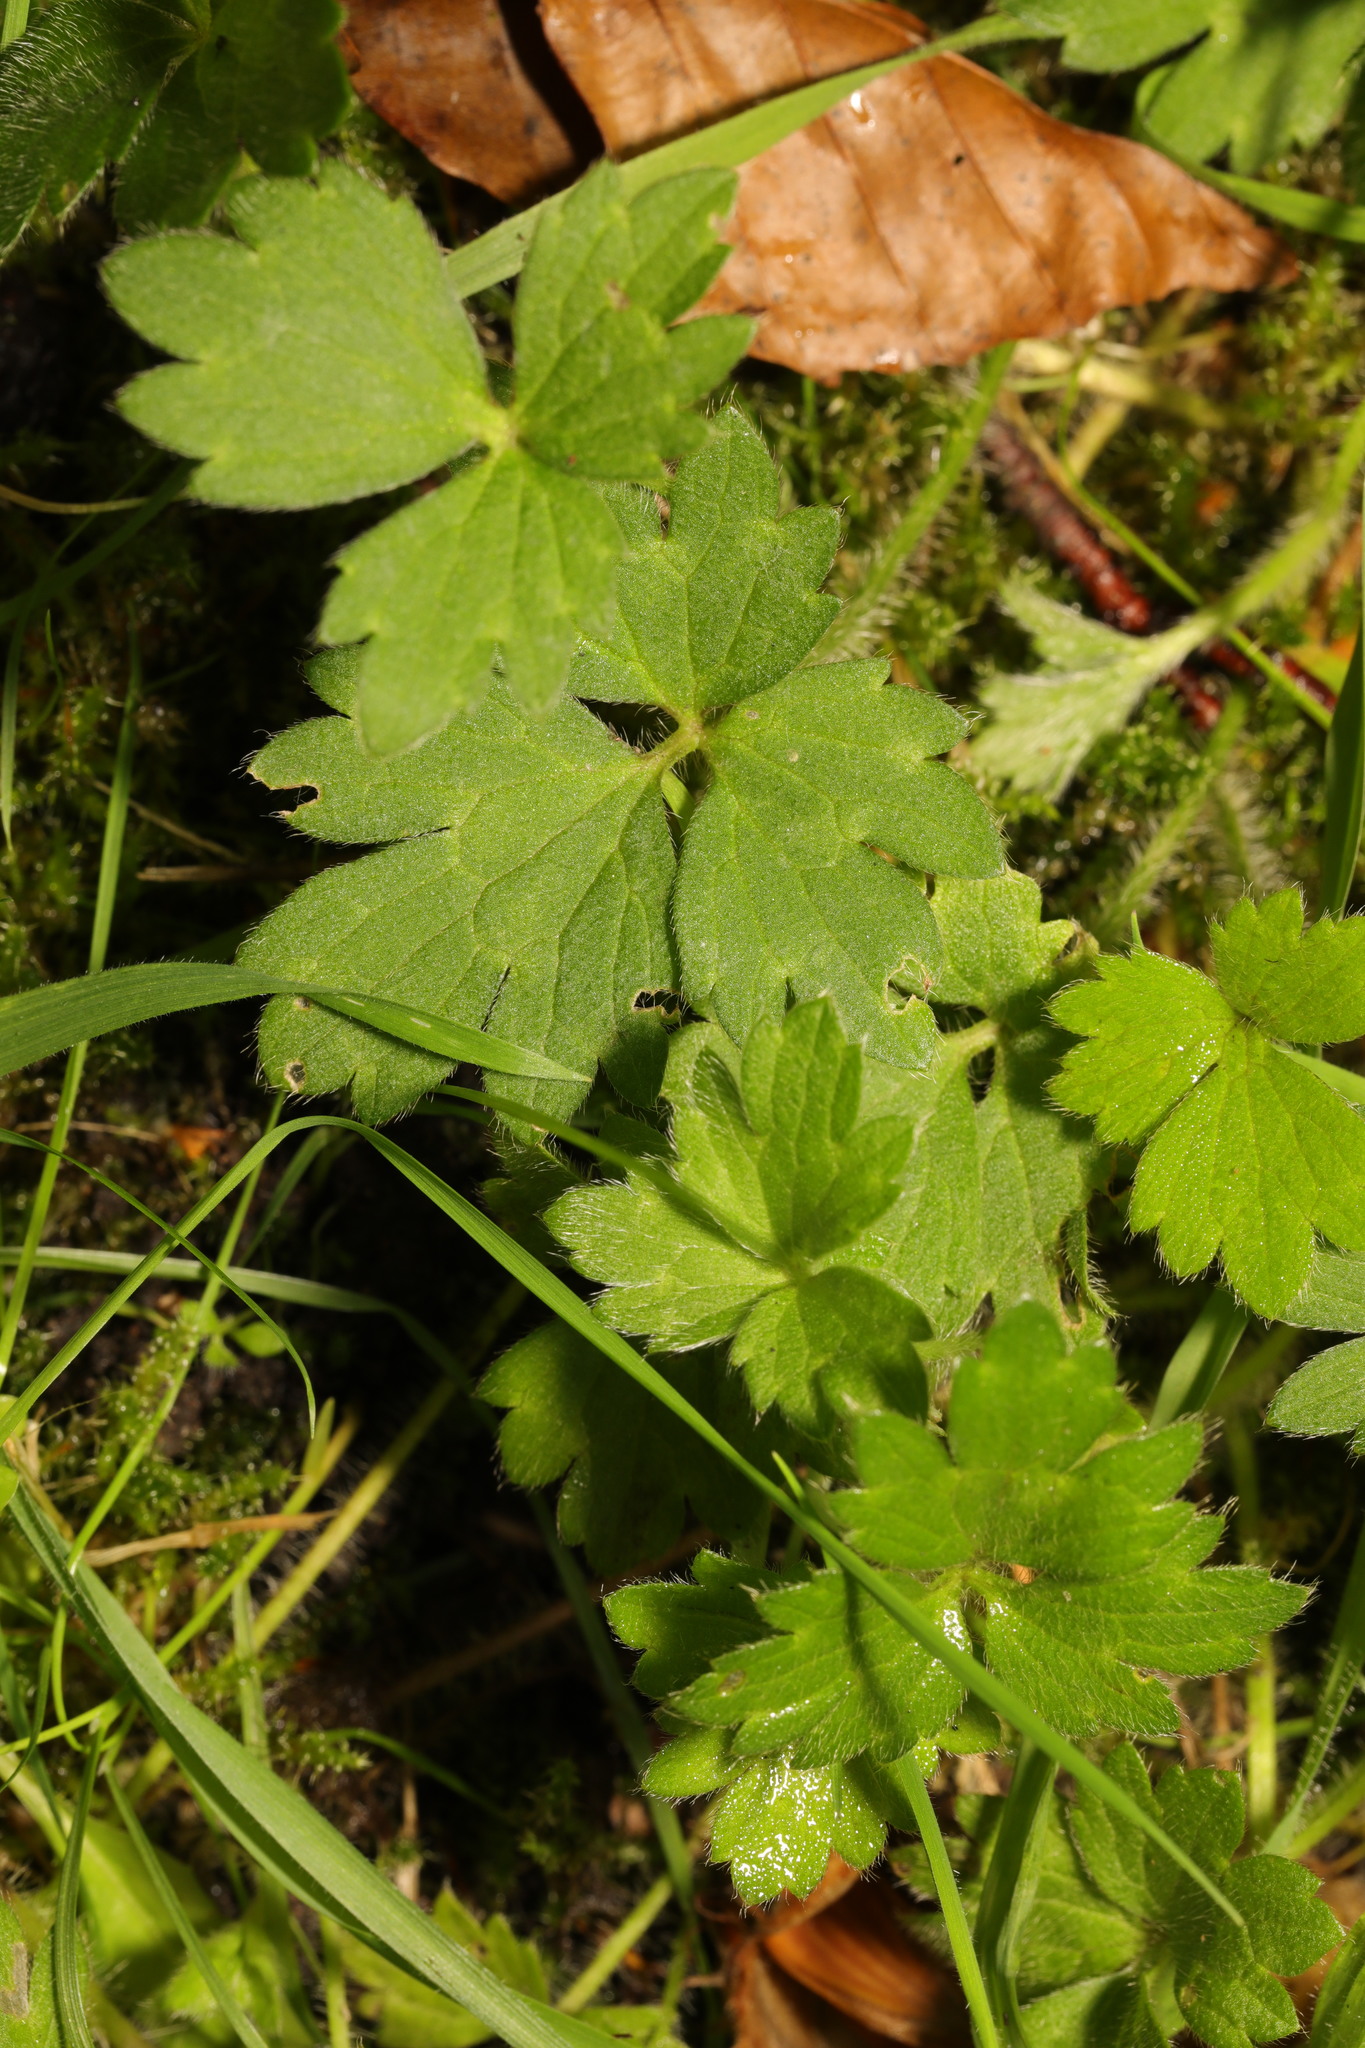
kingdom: Plantae
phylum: Tracheophyta
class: Magnoliopsida
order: Ranunculales
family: Ranunculaceae
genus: Ranunculus
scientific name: Ranunculus repens
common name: Creeping buttercup
